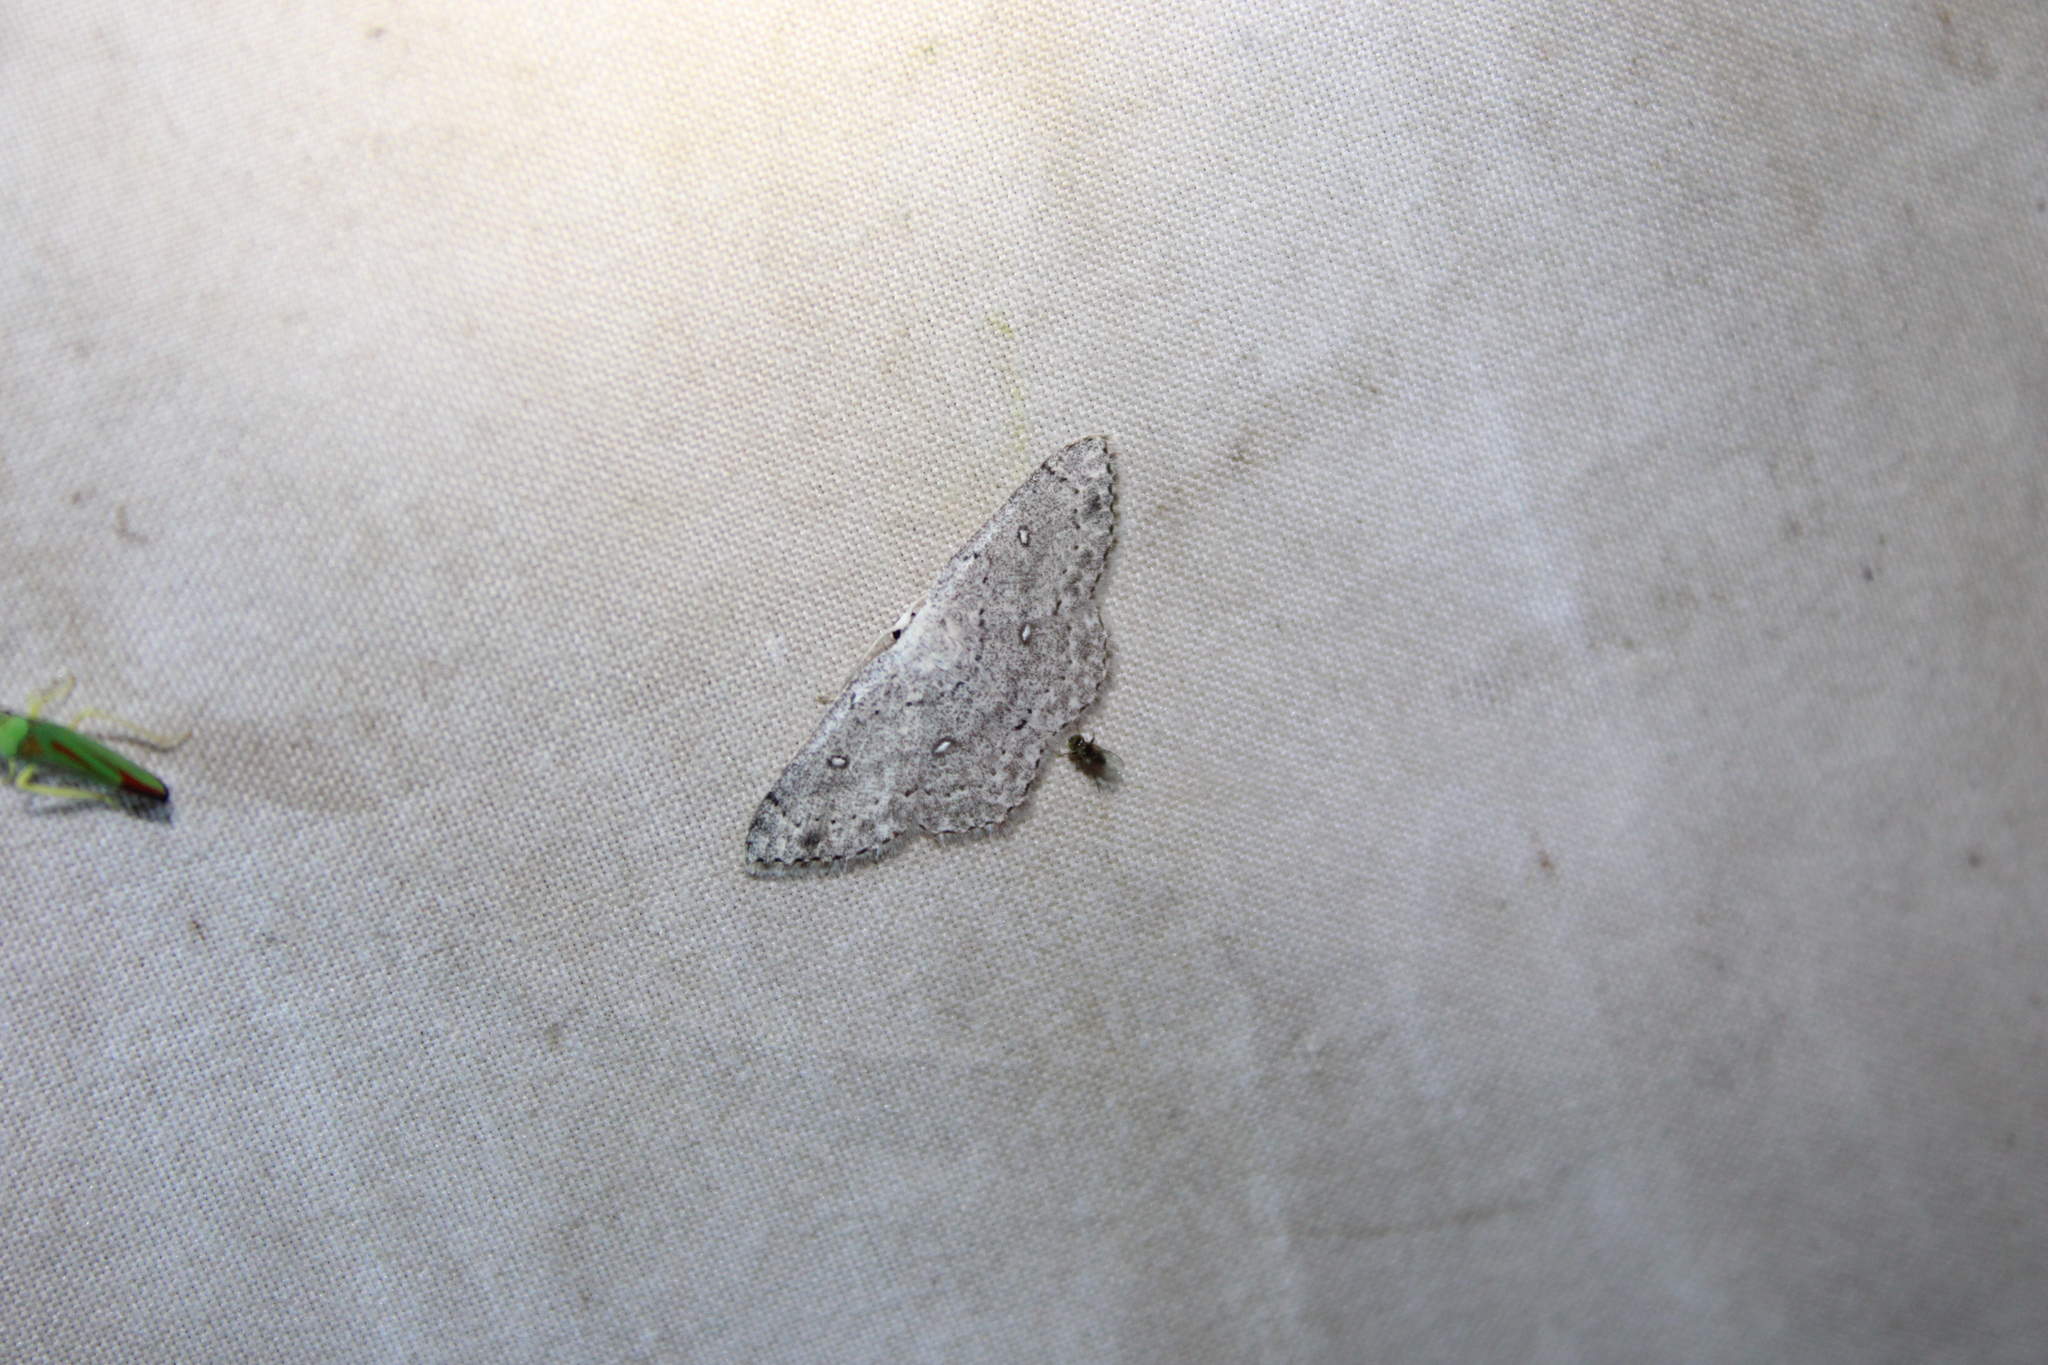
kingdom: Animalia
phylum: Arthropoda
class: Insecta
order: Lepidoptera
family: Geometridae
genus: Cyclophora
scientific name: Cyclophora pendulinaria
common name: Sweet fern geometer
